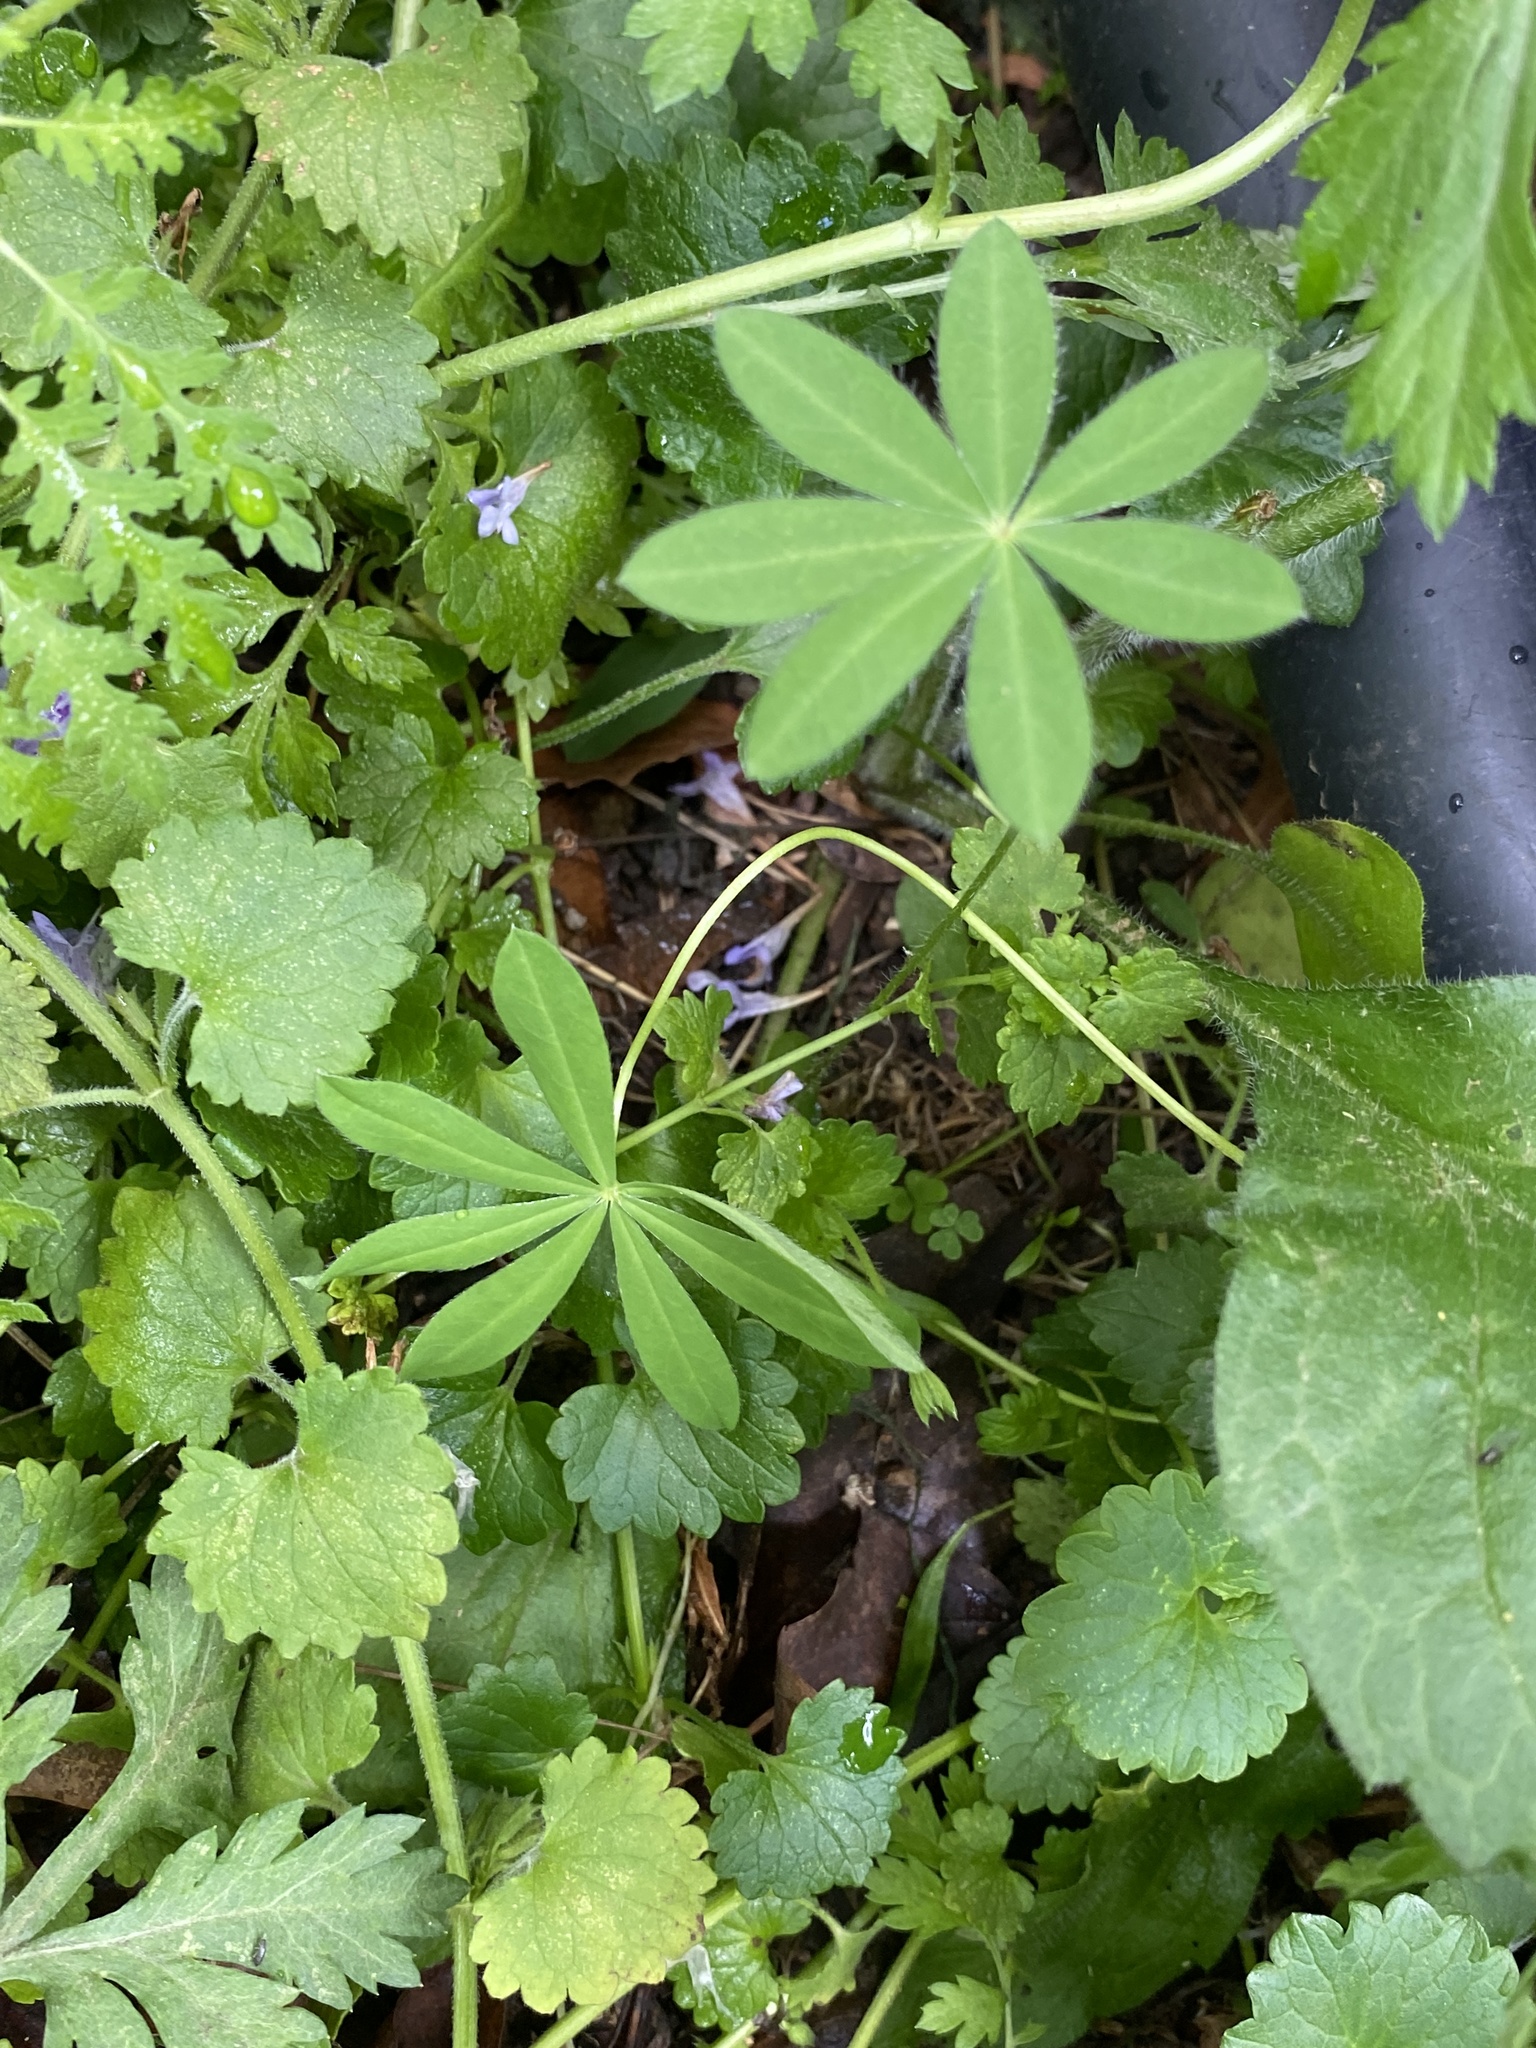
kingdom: Plantae
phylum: Tracheophyta
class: Magnoliopsida
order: Fabales
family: Fabaceae
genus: Lupinus
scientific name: Lupinus polyphyllus
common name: Garden lupin
